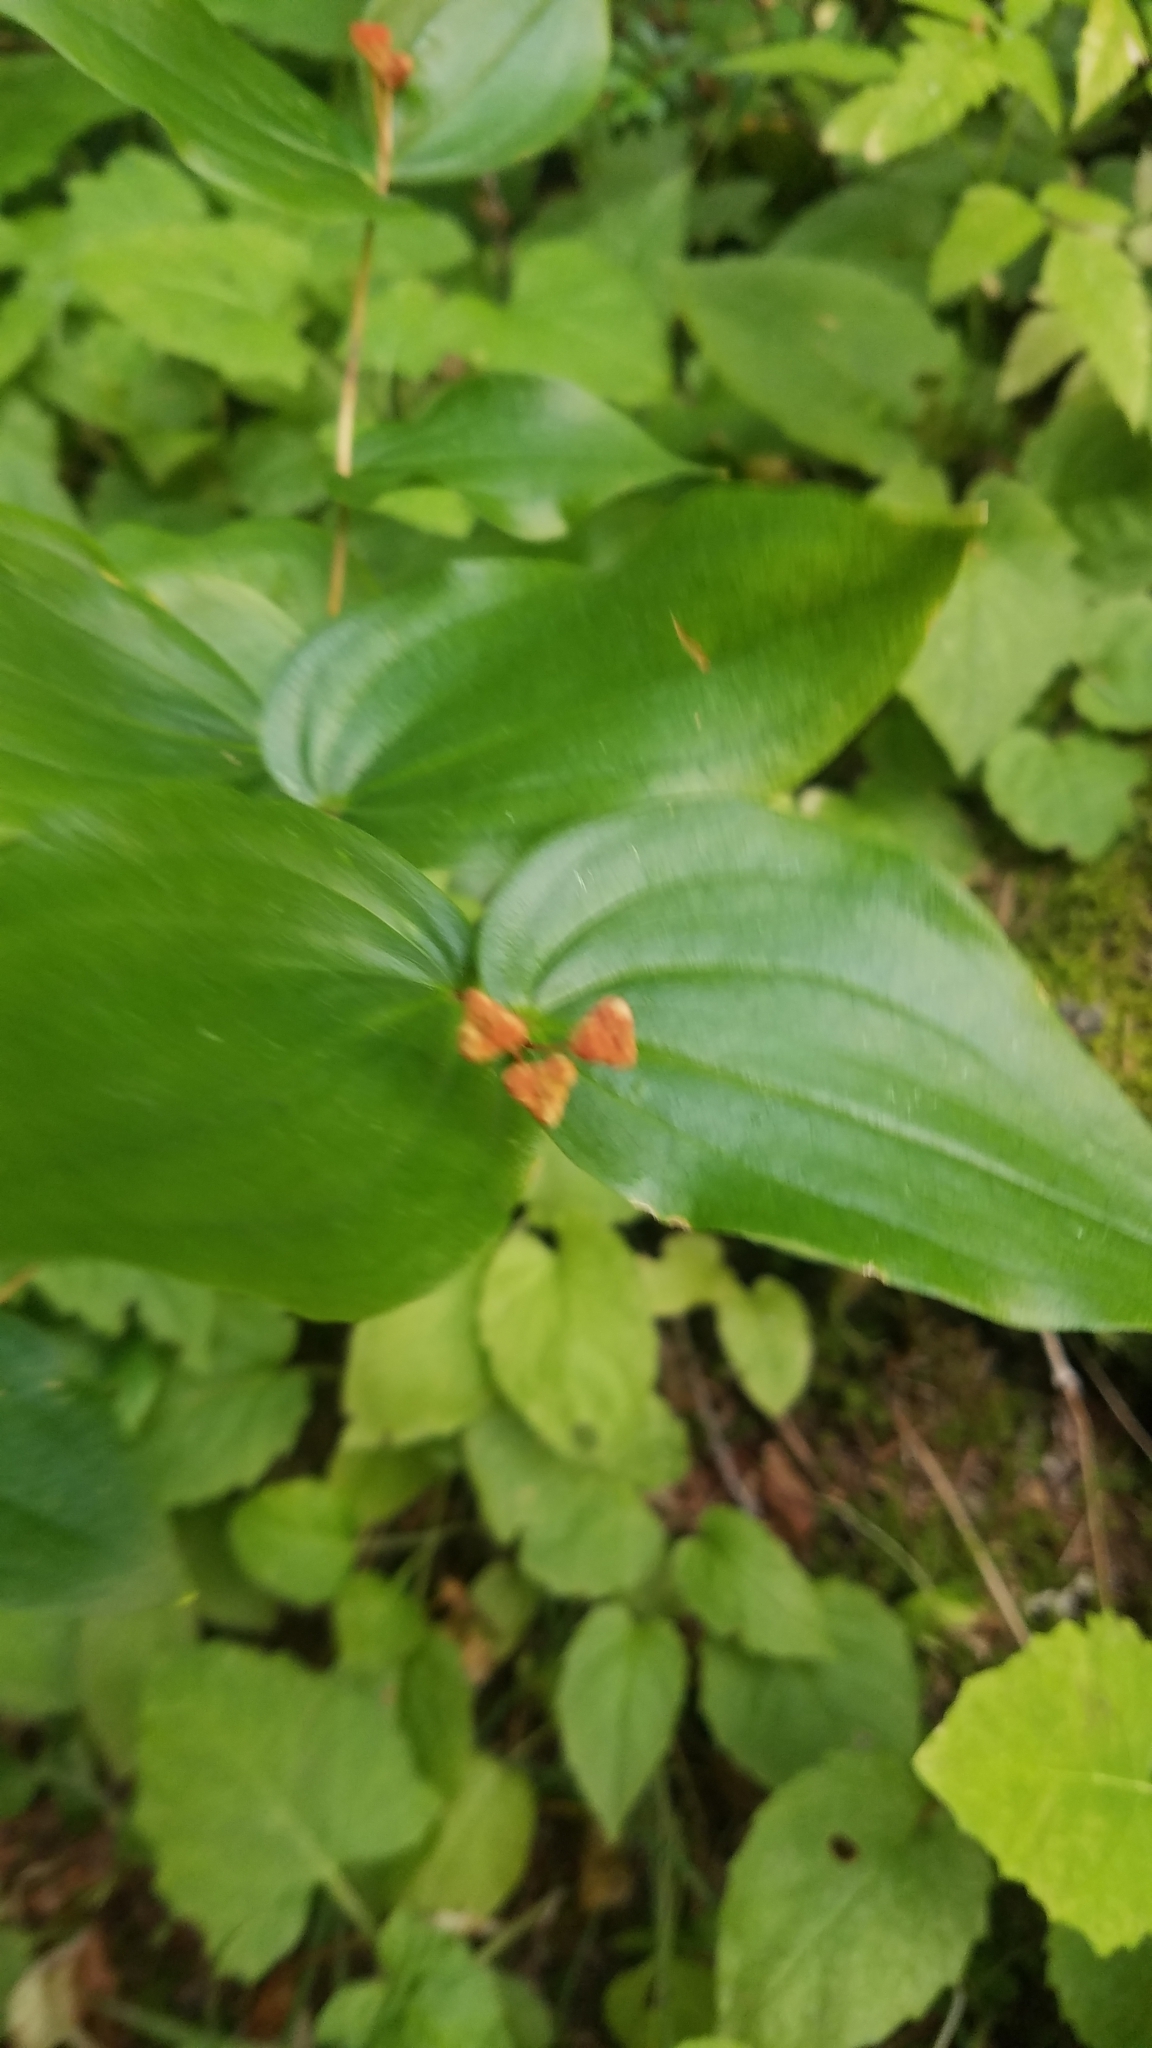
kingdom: Plantae
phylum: Tracheophyta
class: Liliopsida
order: Liliales
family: Liliaceae
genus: Prosartes
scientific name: Prosartes trachycarpa
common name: Rough-fruit fairy-bells
